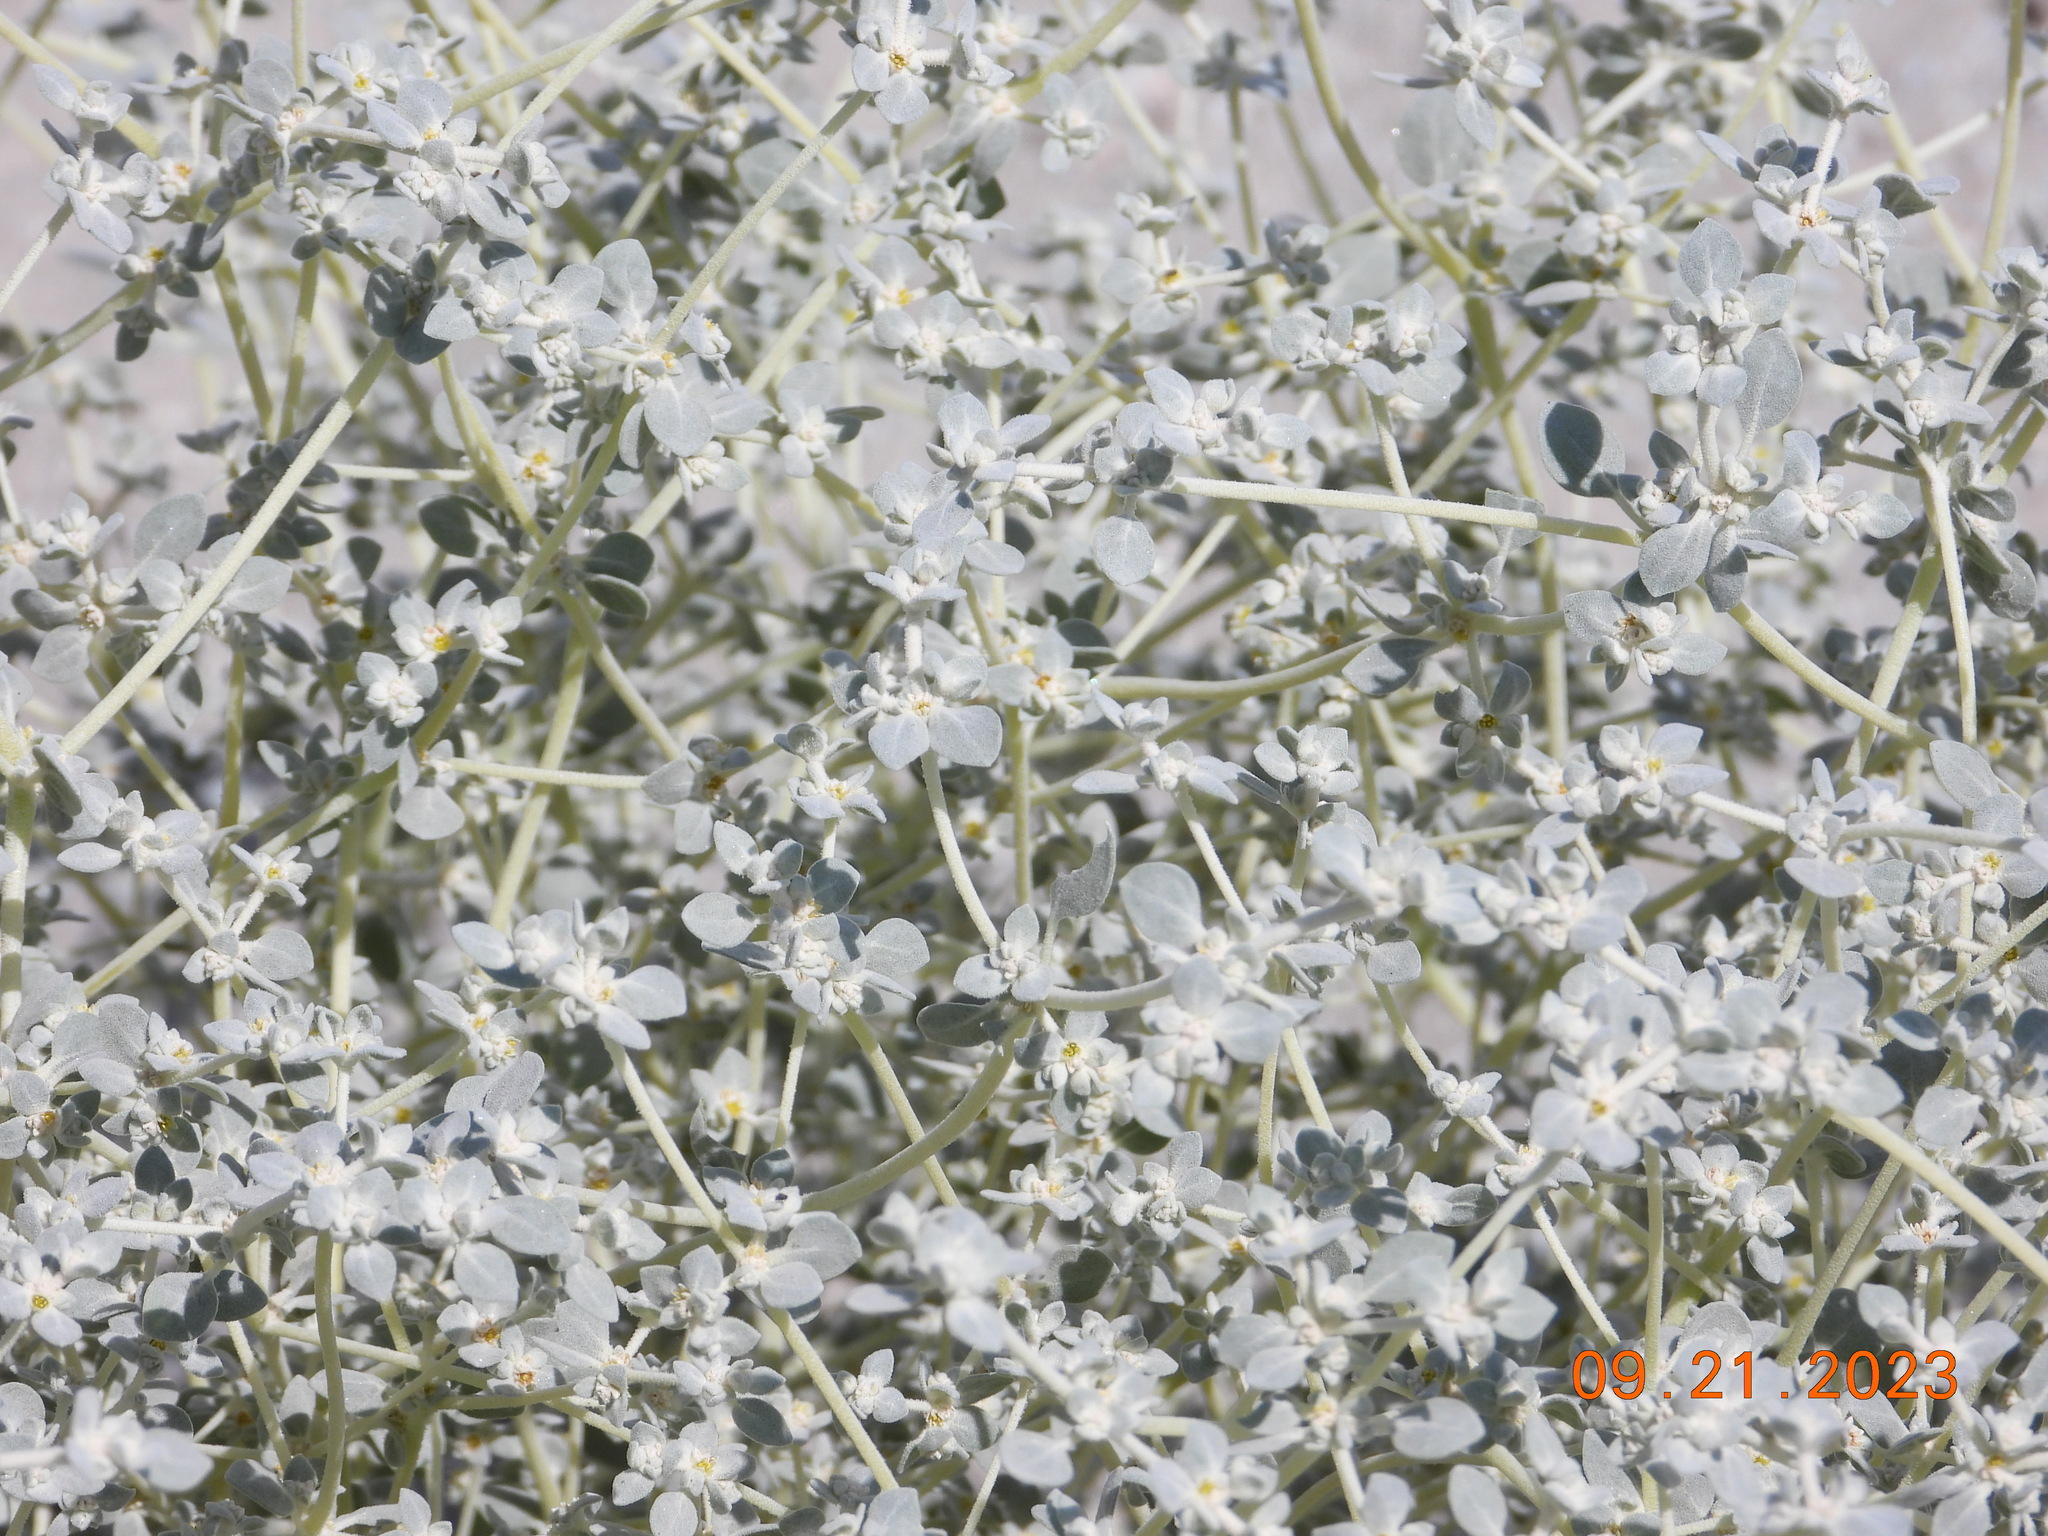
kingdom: Plantae
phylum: Tracheophyta
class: Magnoliopsida
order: Caryophyllales
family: Amaranthaceae
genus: Tidestromia
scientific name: Tidestromia suffruticosa
